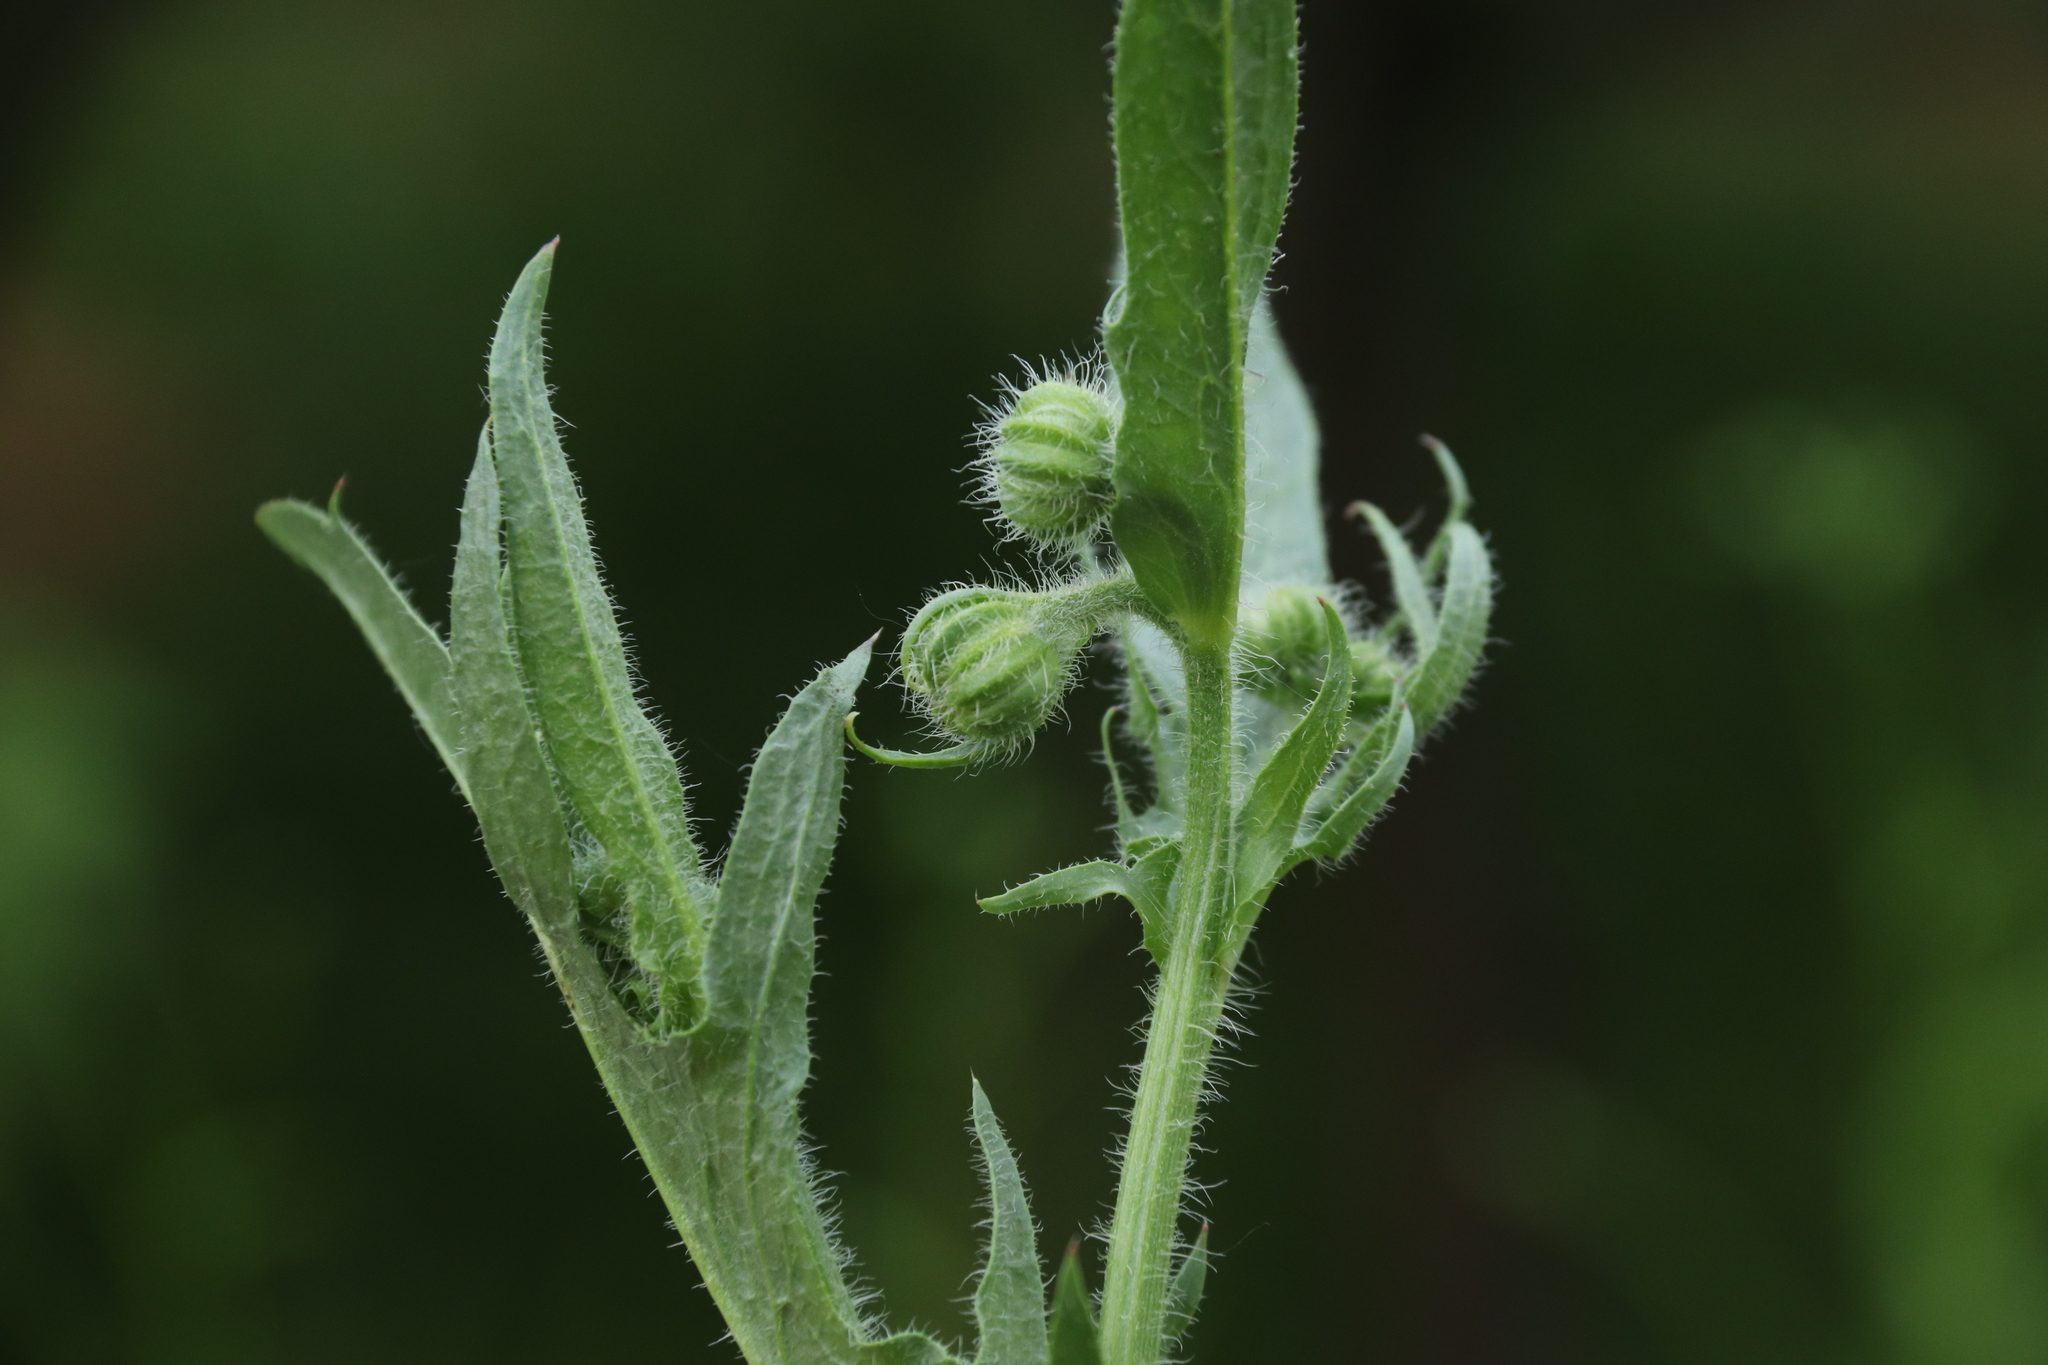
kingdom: Plantae
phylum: Tracheophyta
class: Magnoliopsida
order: Asterales
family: Asteraceae
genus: Crepis
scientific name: Crepis foetida
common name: Stinking hawk's-beard
